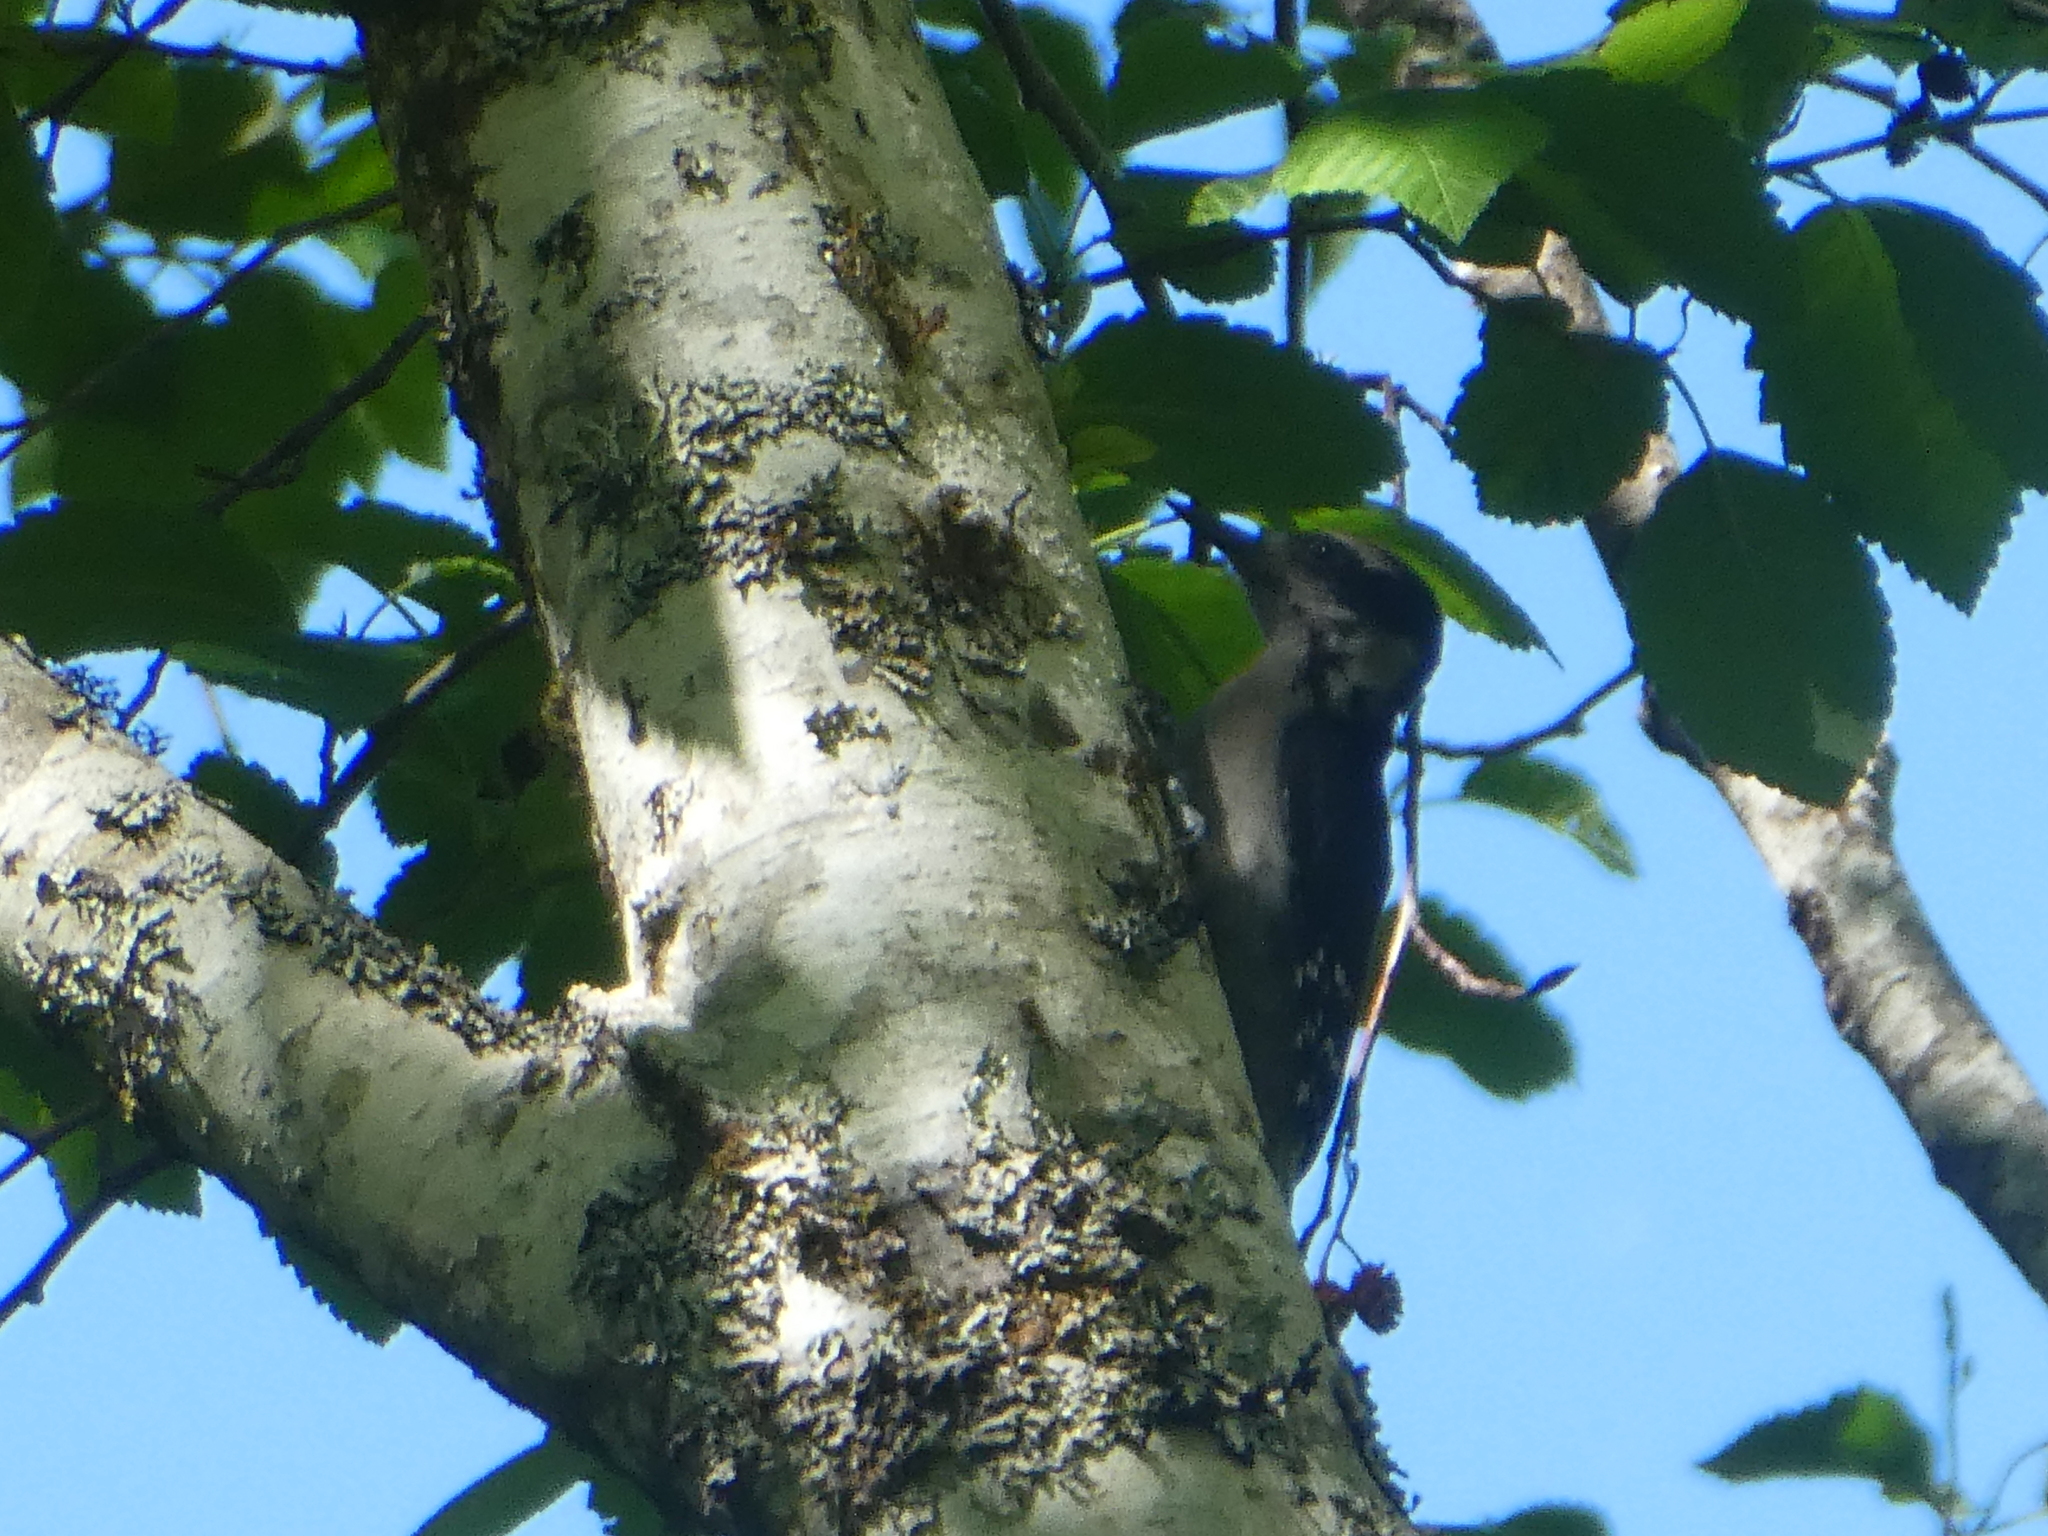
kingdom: Animalia
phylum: Chordata
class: Aves
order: Piciformes
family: Picidae
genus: Leuconotopicus
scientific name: Leuconotopicus villosus
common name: Hairy woodpecker
